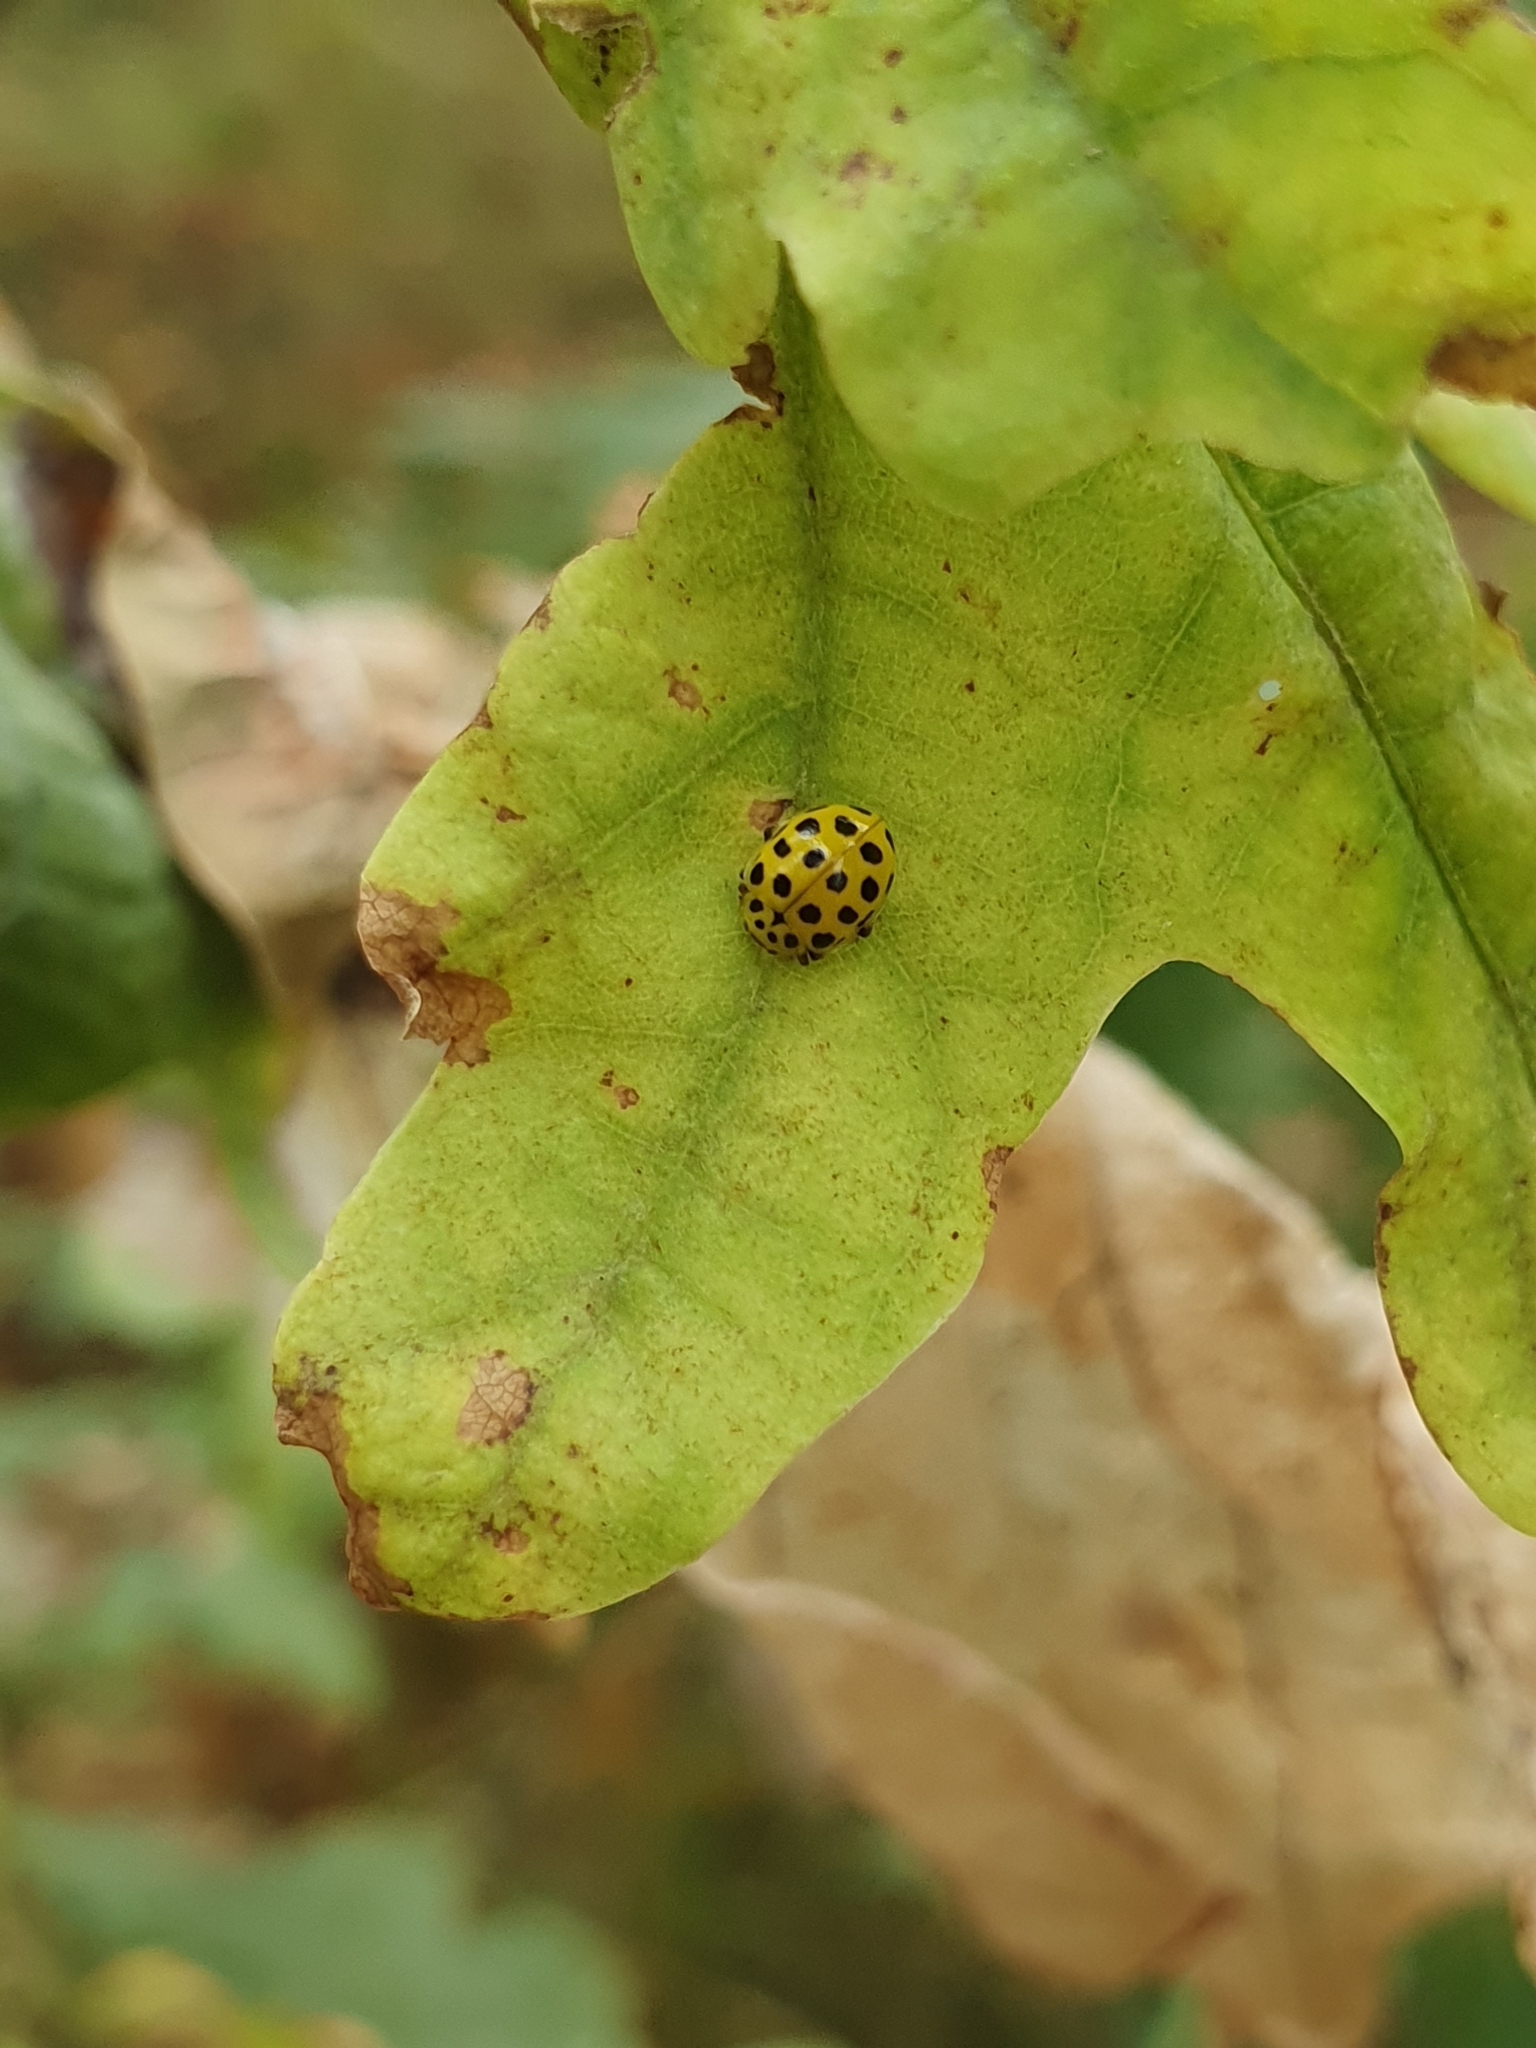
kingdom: Animalia
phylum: Arthropoda
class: Insecta
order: Coleoptera
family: Coccinellidae
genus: Psyllobora
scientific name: Psyllobora vigintiduopunctata
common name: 22-spot ladybird
